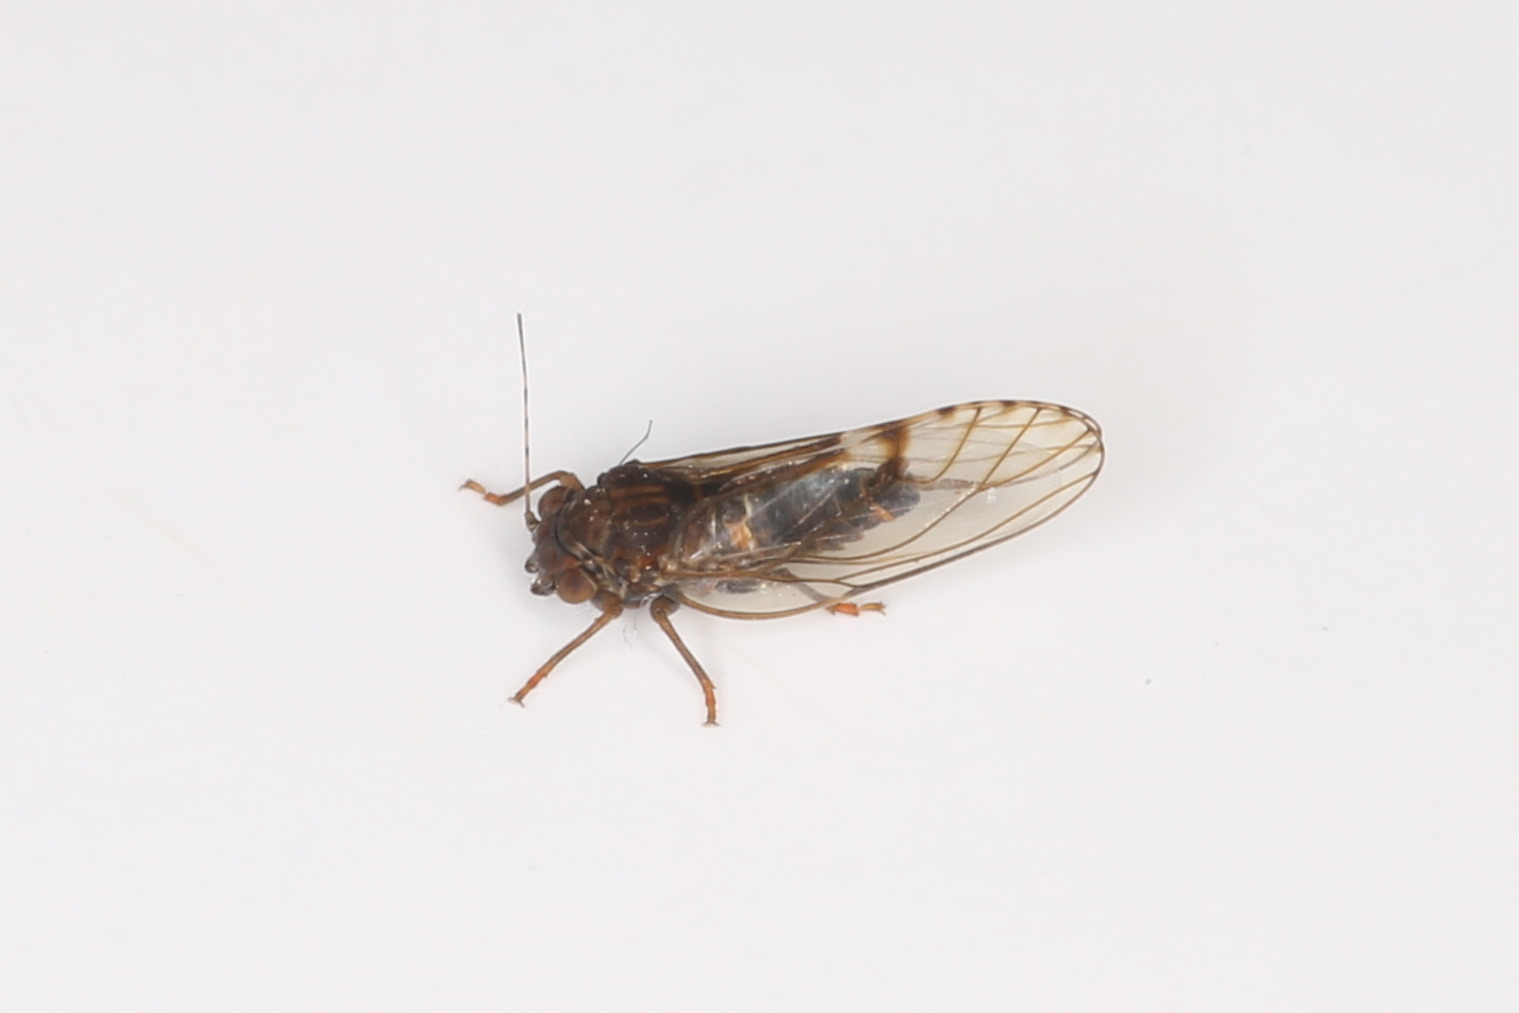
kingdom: Animalia
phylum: Arthropoda
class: Insecta
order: Hemiptera
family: Psyllidae
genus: Cacopsylla
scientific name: Cacopsylla crataegi
